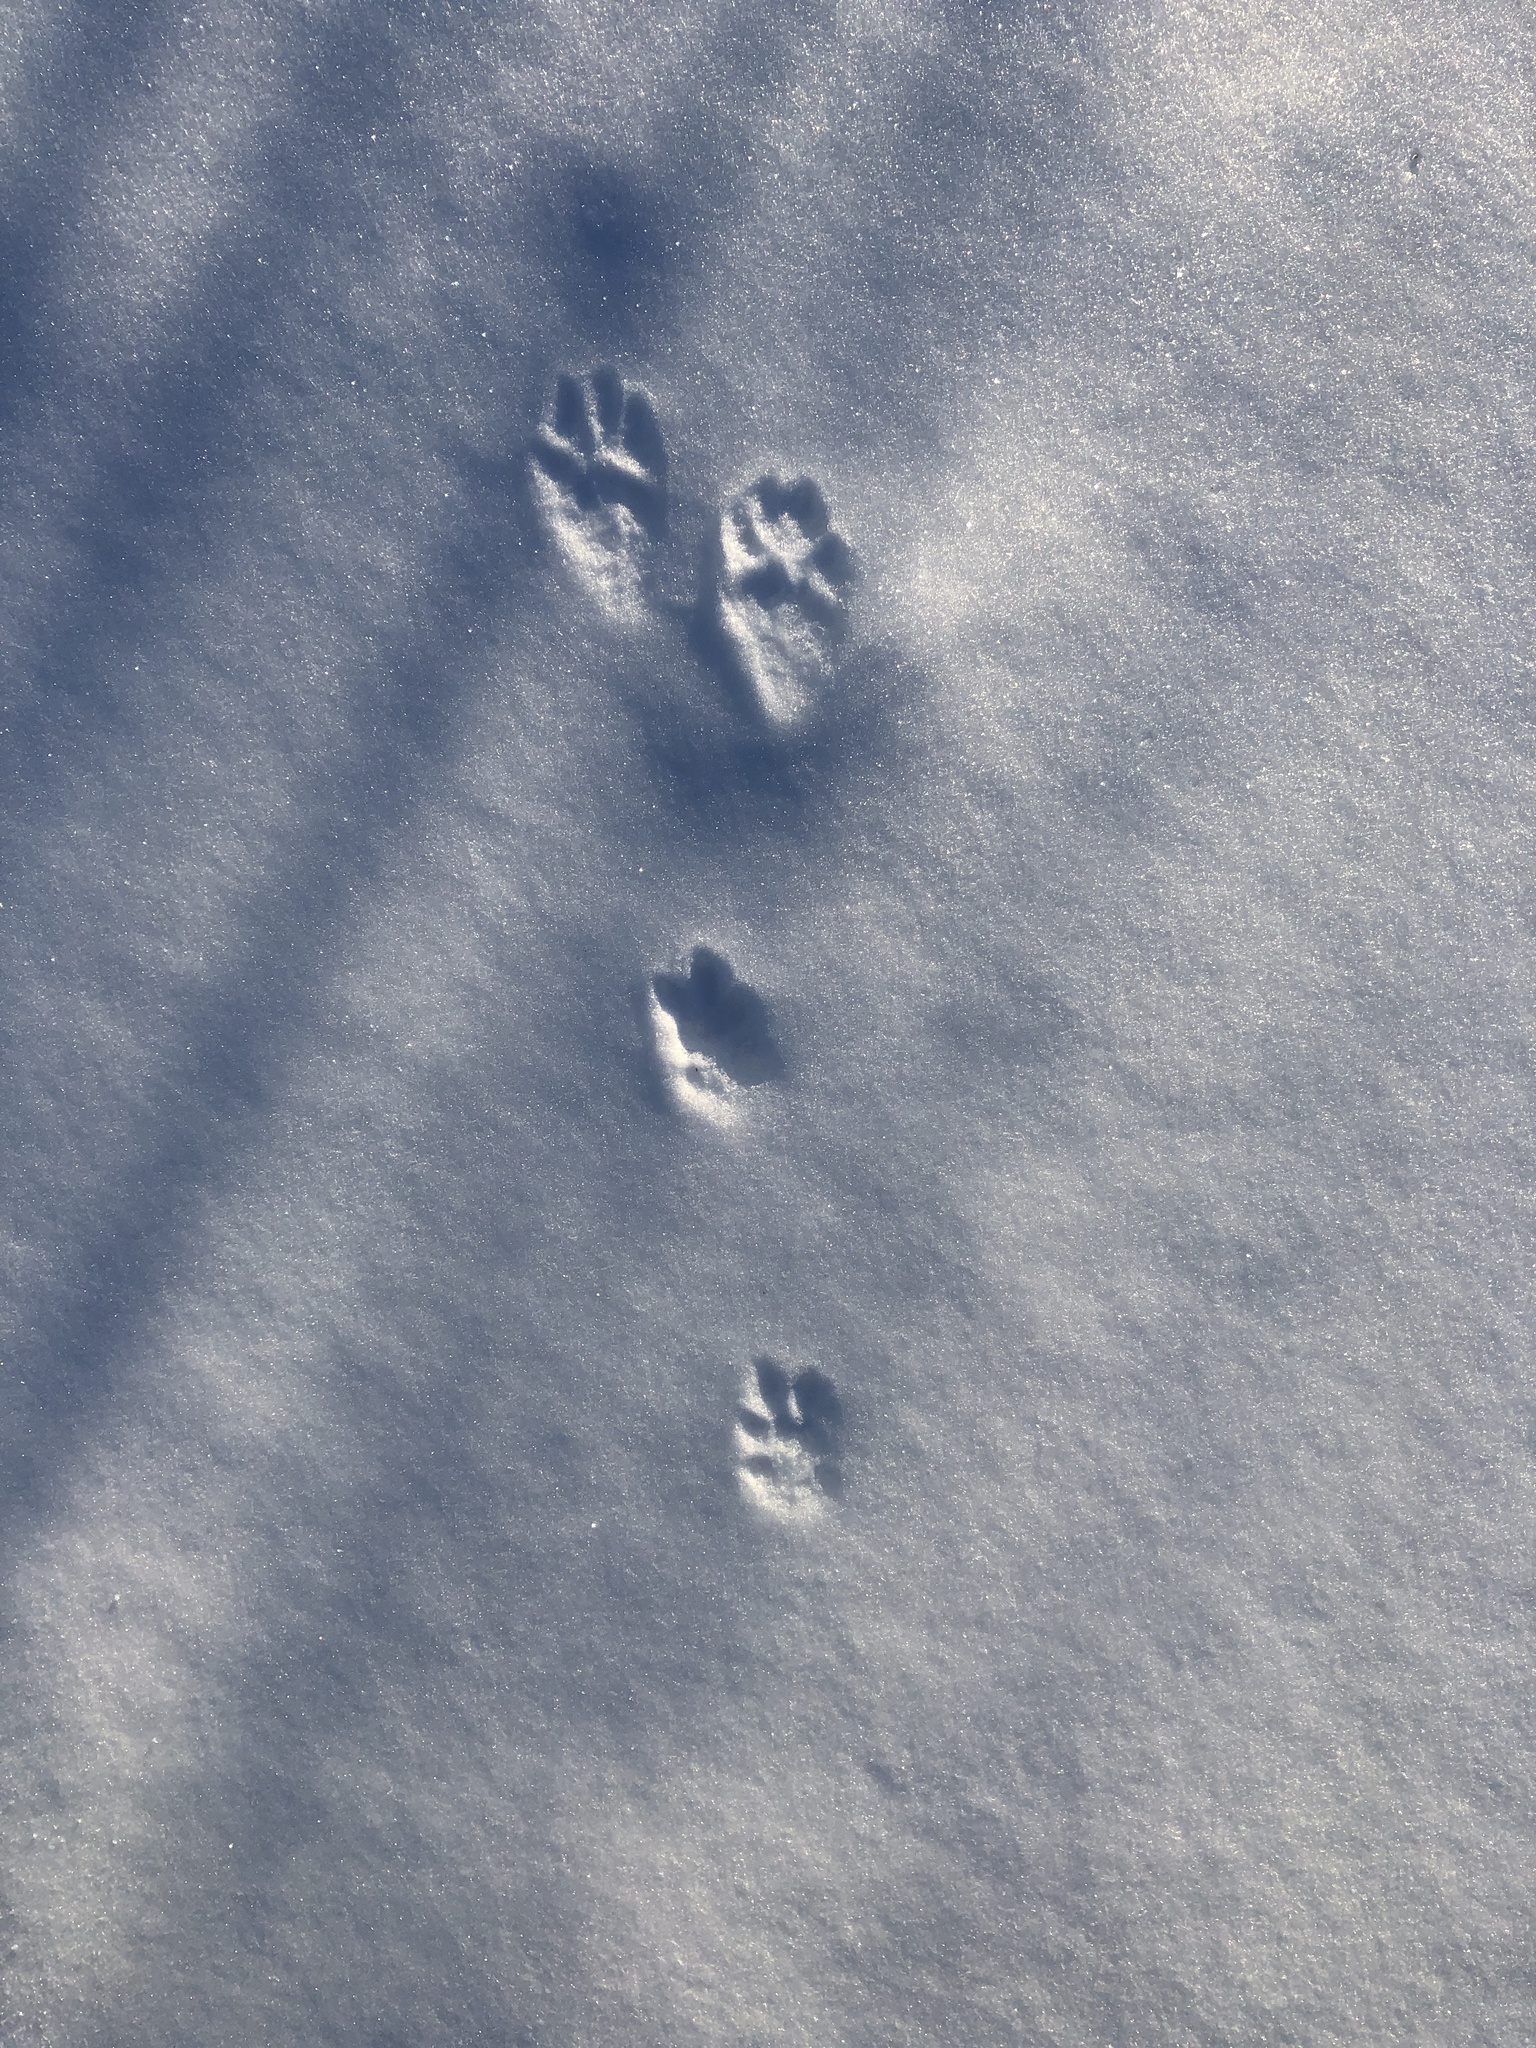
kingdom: Animalia
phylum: Chordata
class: Mammalia
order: Lagomorpha
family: Leporidae
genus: Lepus
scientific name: Lepus americanus
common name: Snowshoe hare
